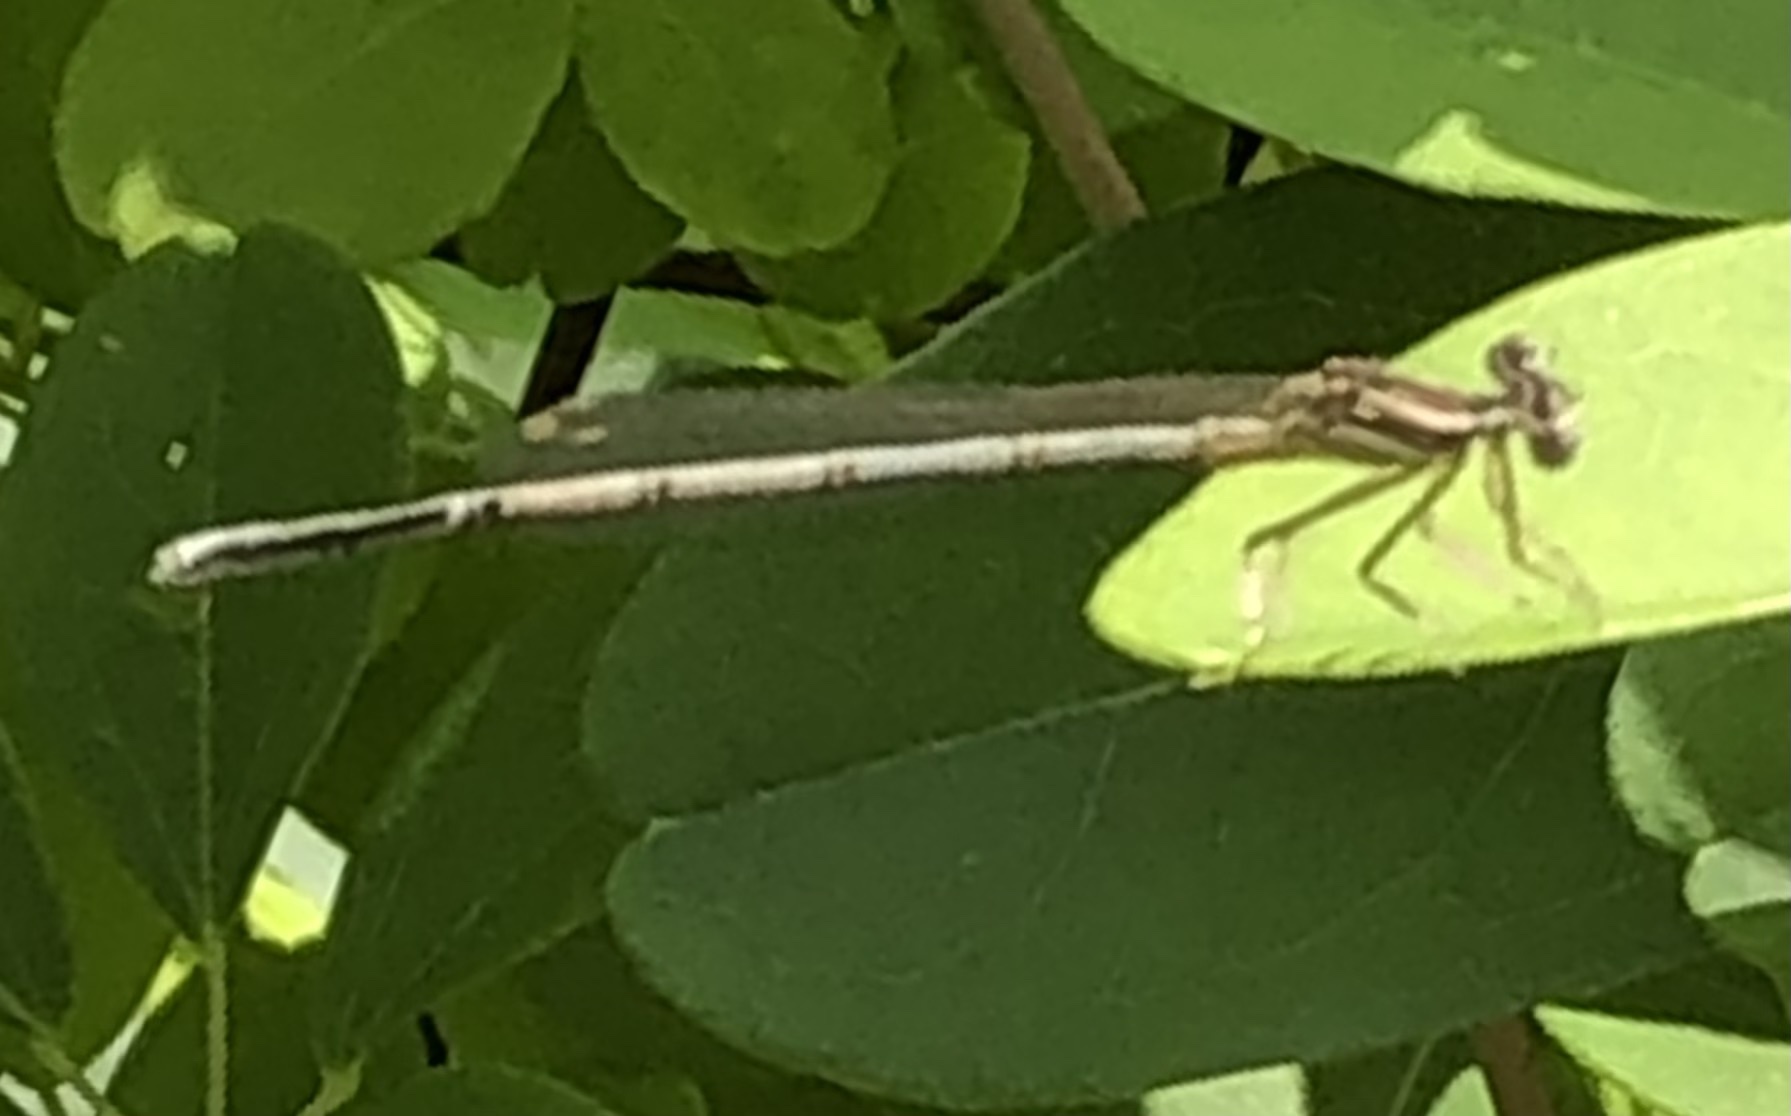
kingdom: Animalia
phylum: Arthropoda
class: Insecta
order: Odonata
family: Platycnemididae
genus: Platycnemis
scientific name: Platycnemis pennipes
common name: White-legged damselfly
